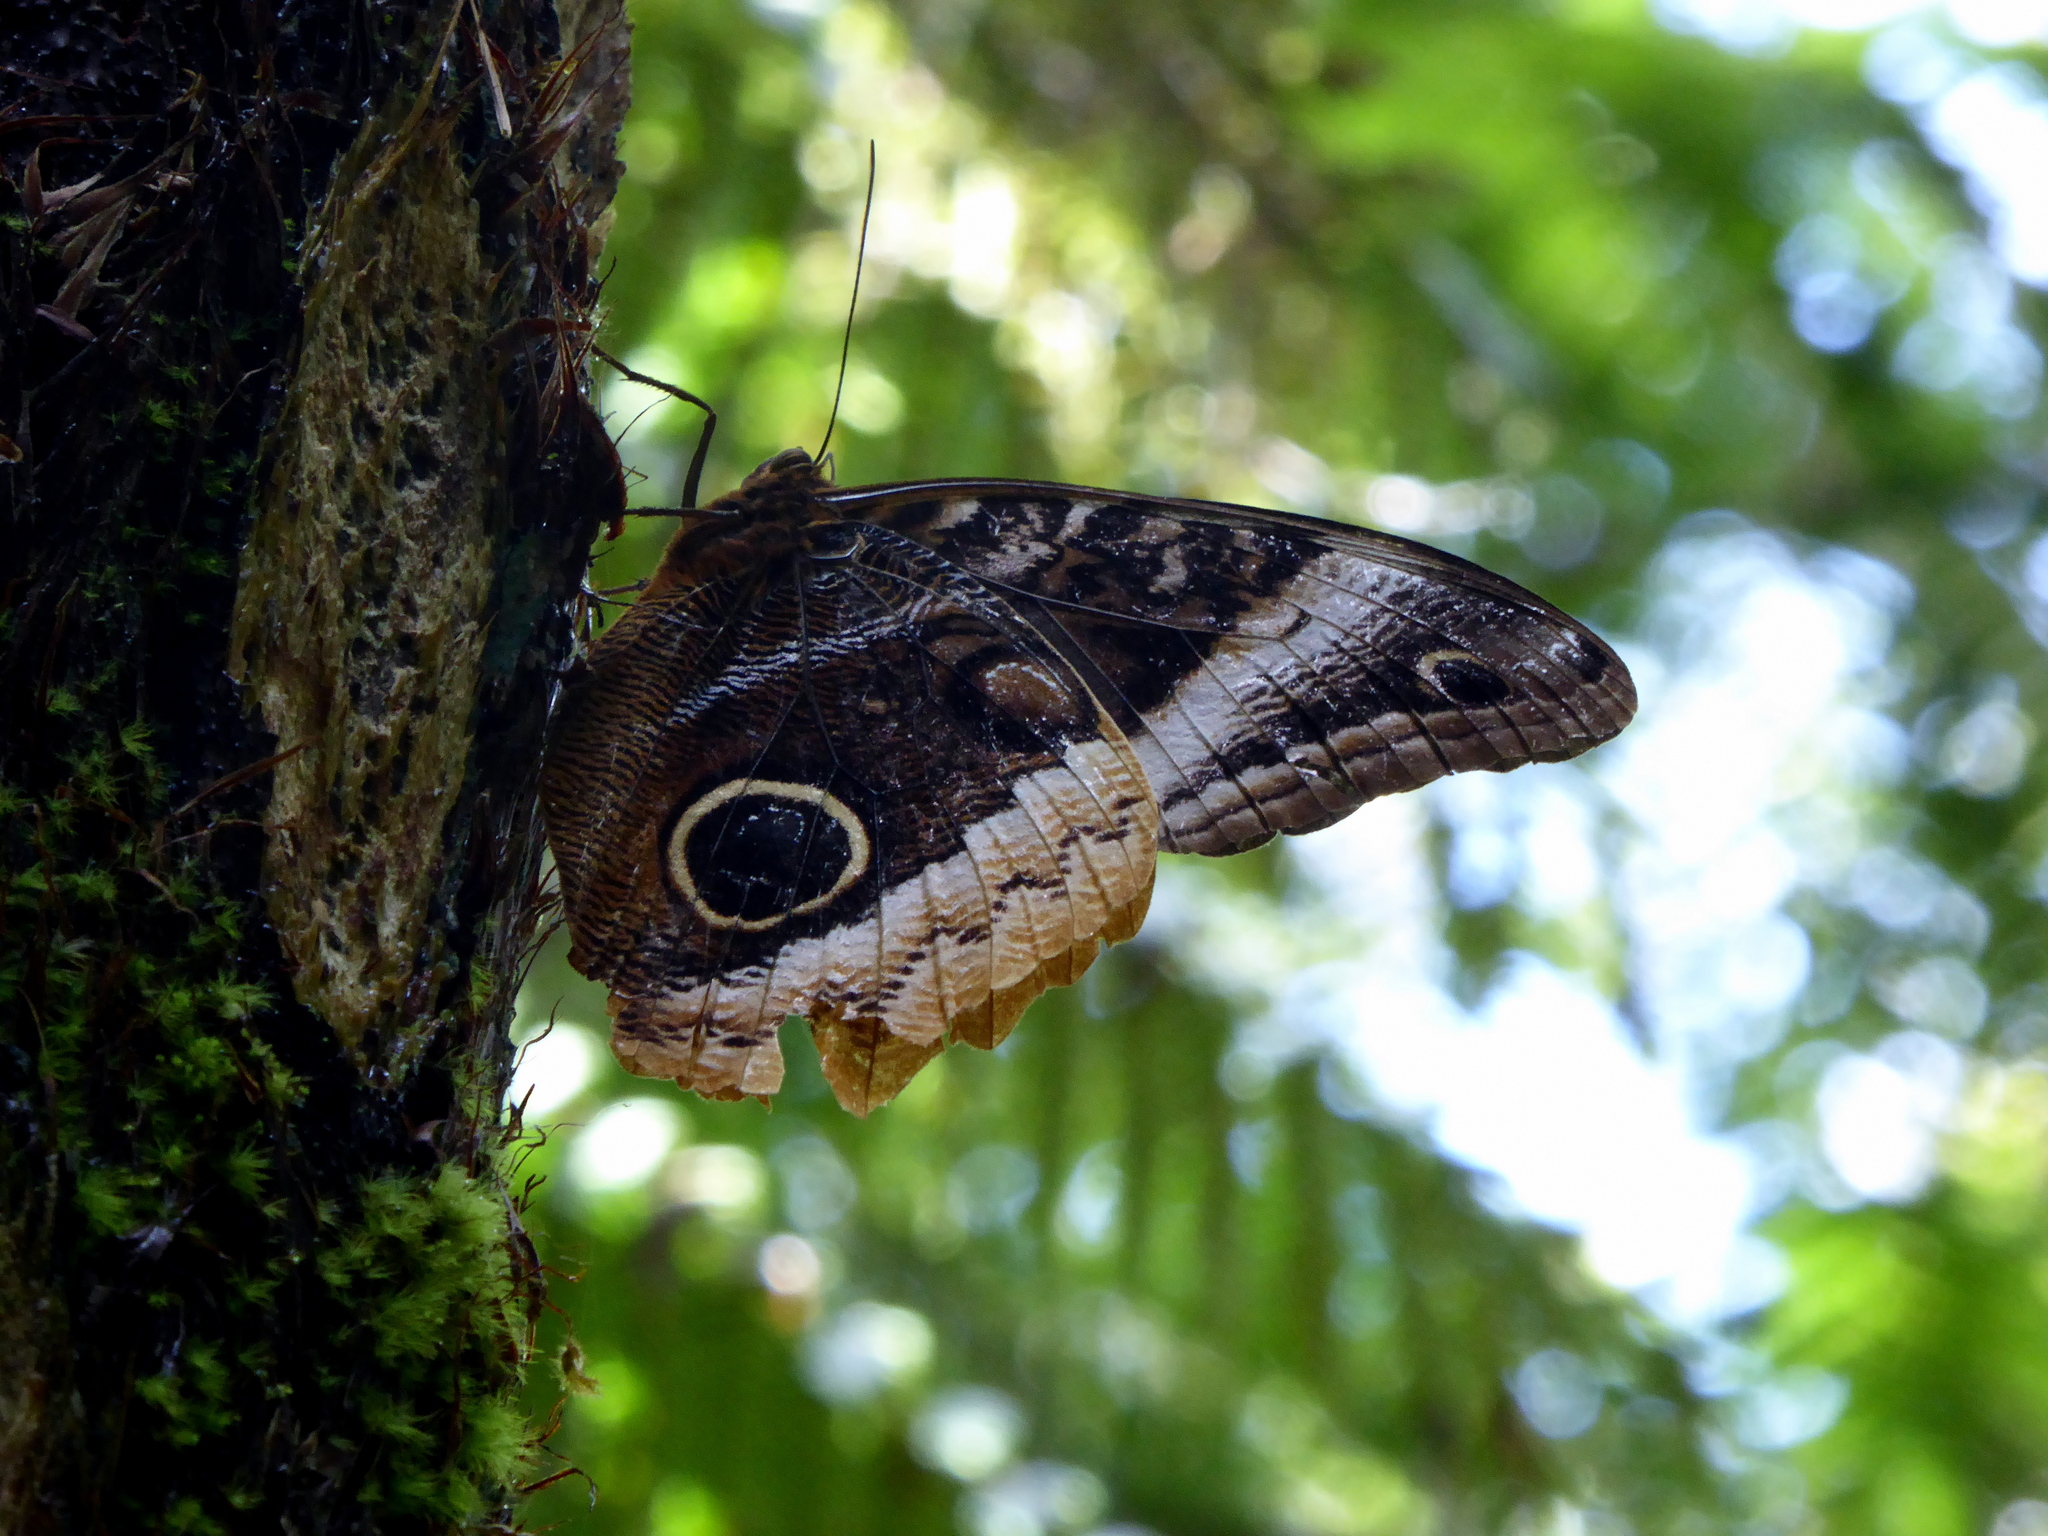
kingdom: Animalia
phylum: Arthropoda
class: Insecta
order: Lepidoptera
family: Nymphalidae
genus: Caligo
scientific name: Caligo uranus
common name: Gold-edged owl-butterfly
